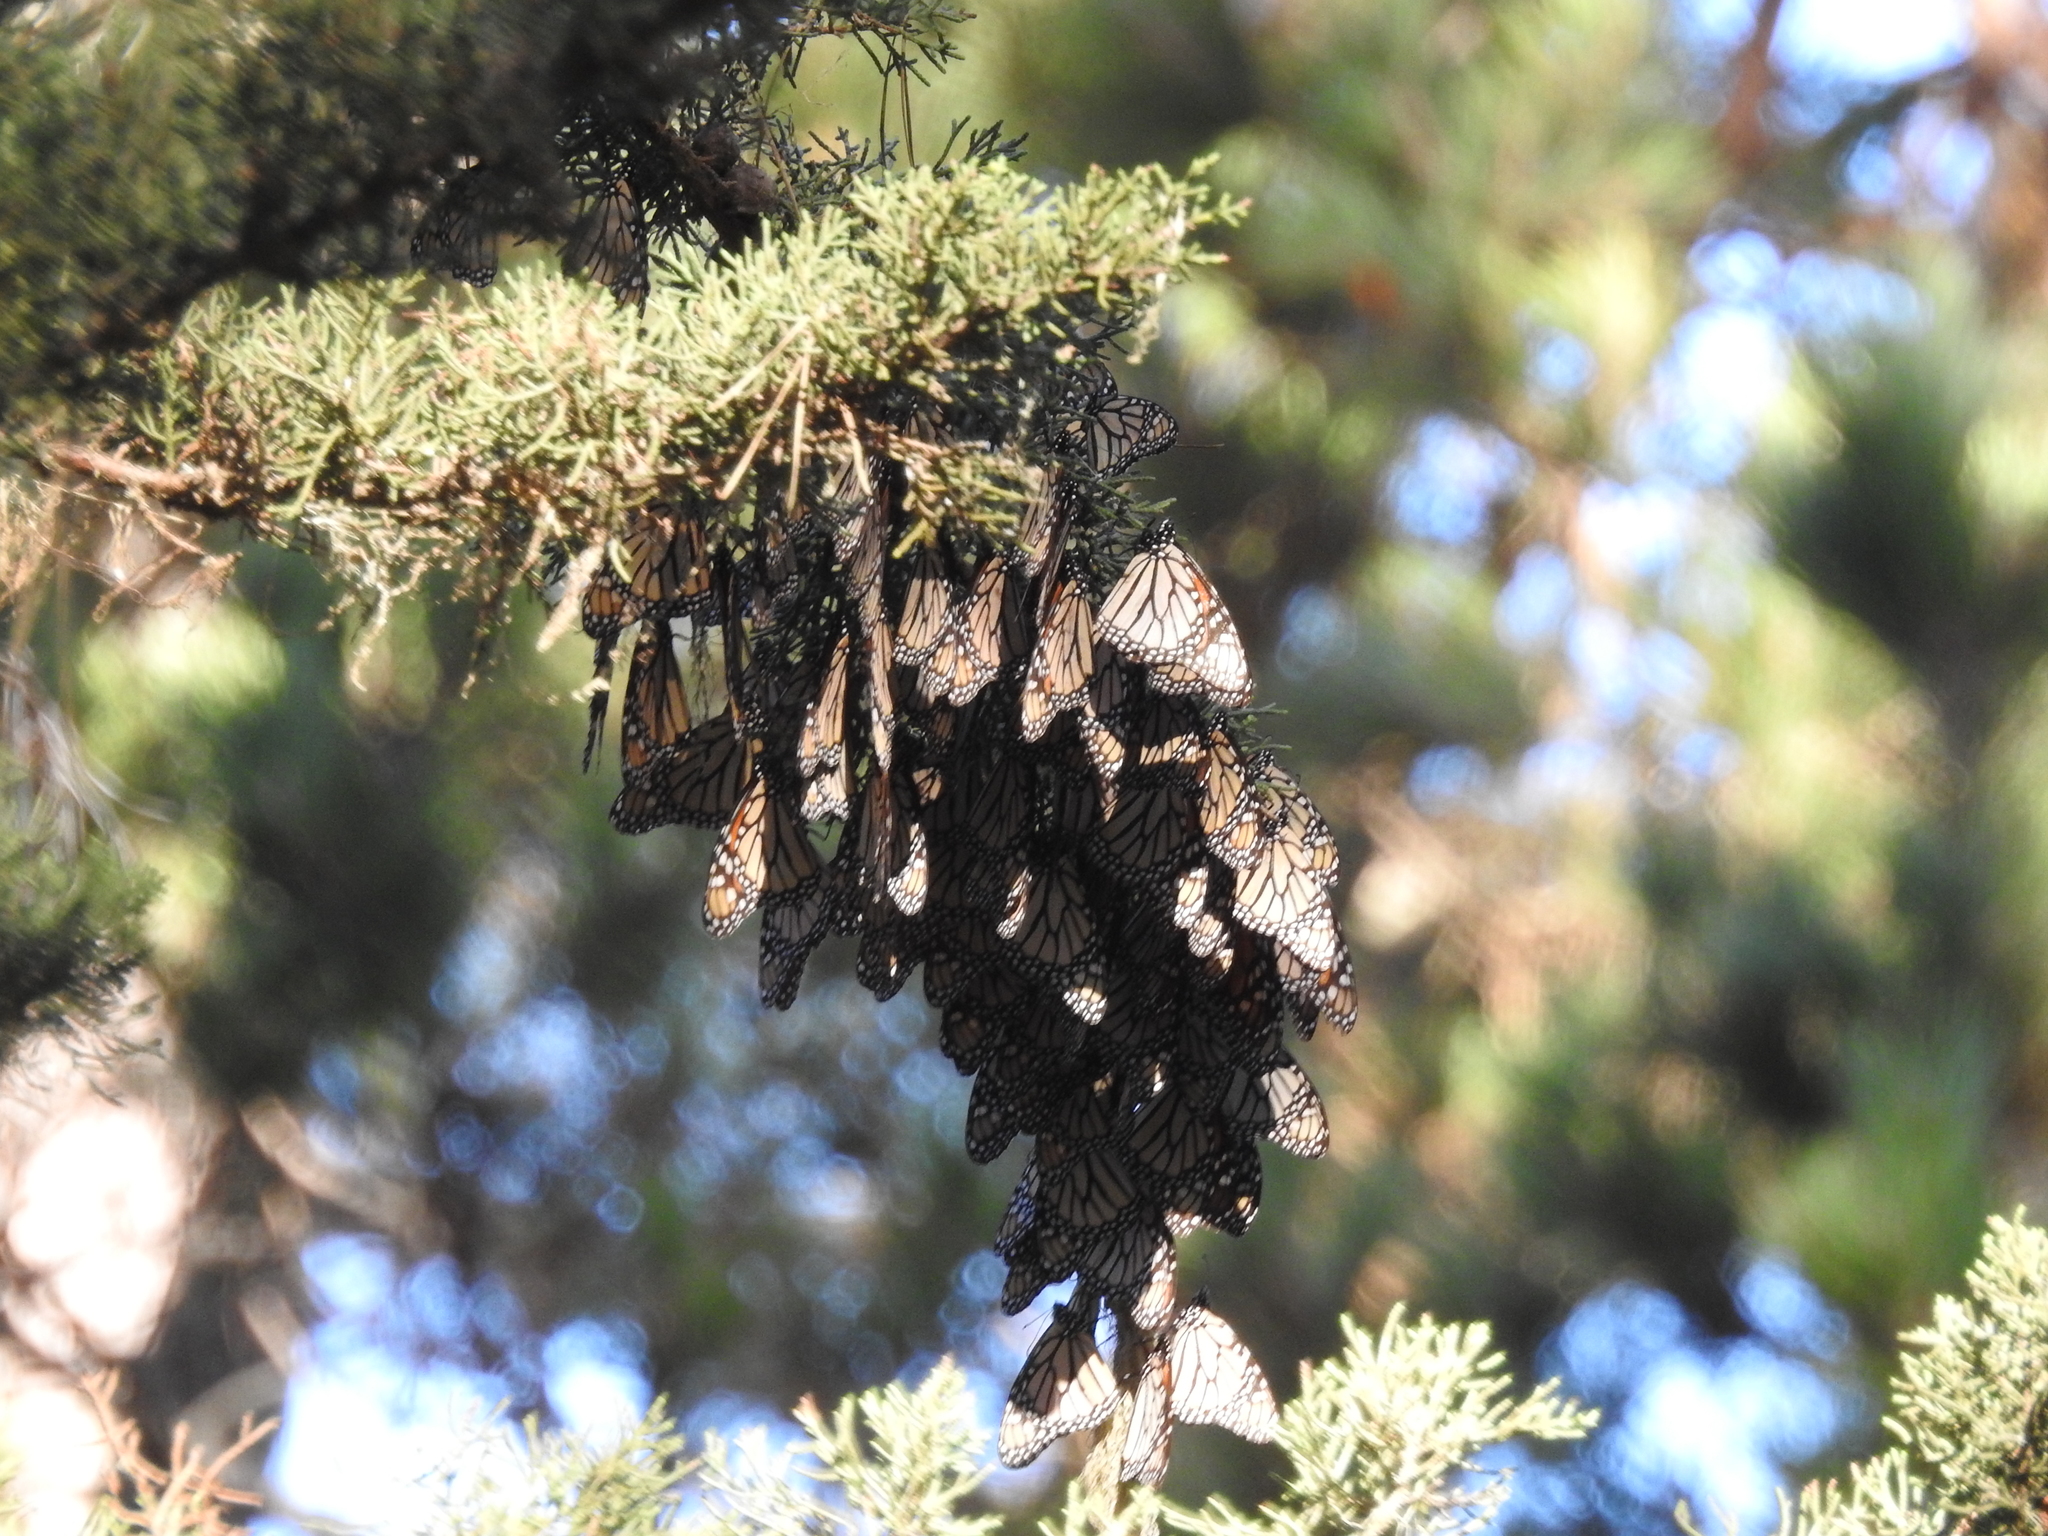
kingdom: Animalia
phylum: Arthropoda
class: Insecta
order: Lepidoptera
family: Nymphalidae
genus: Danaus
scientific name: Danaus plexippus
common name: Monarch
